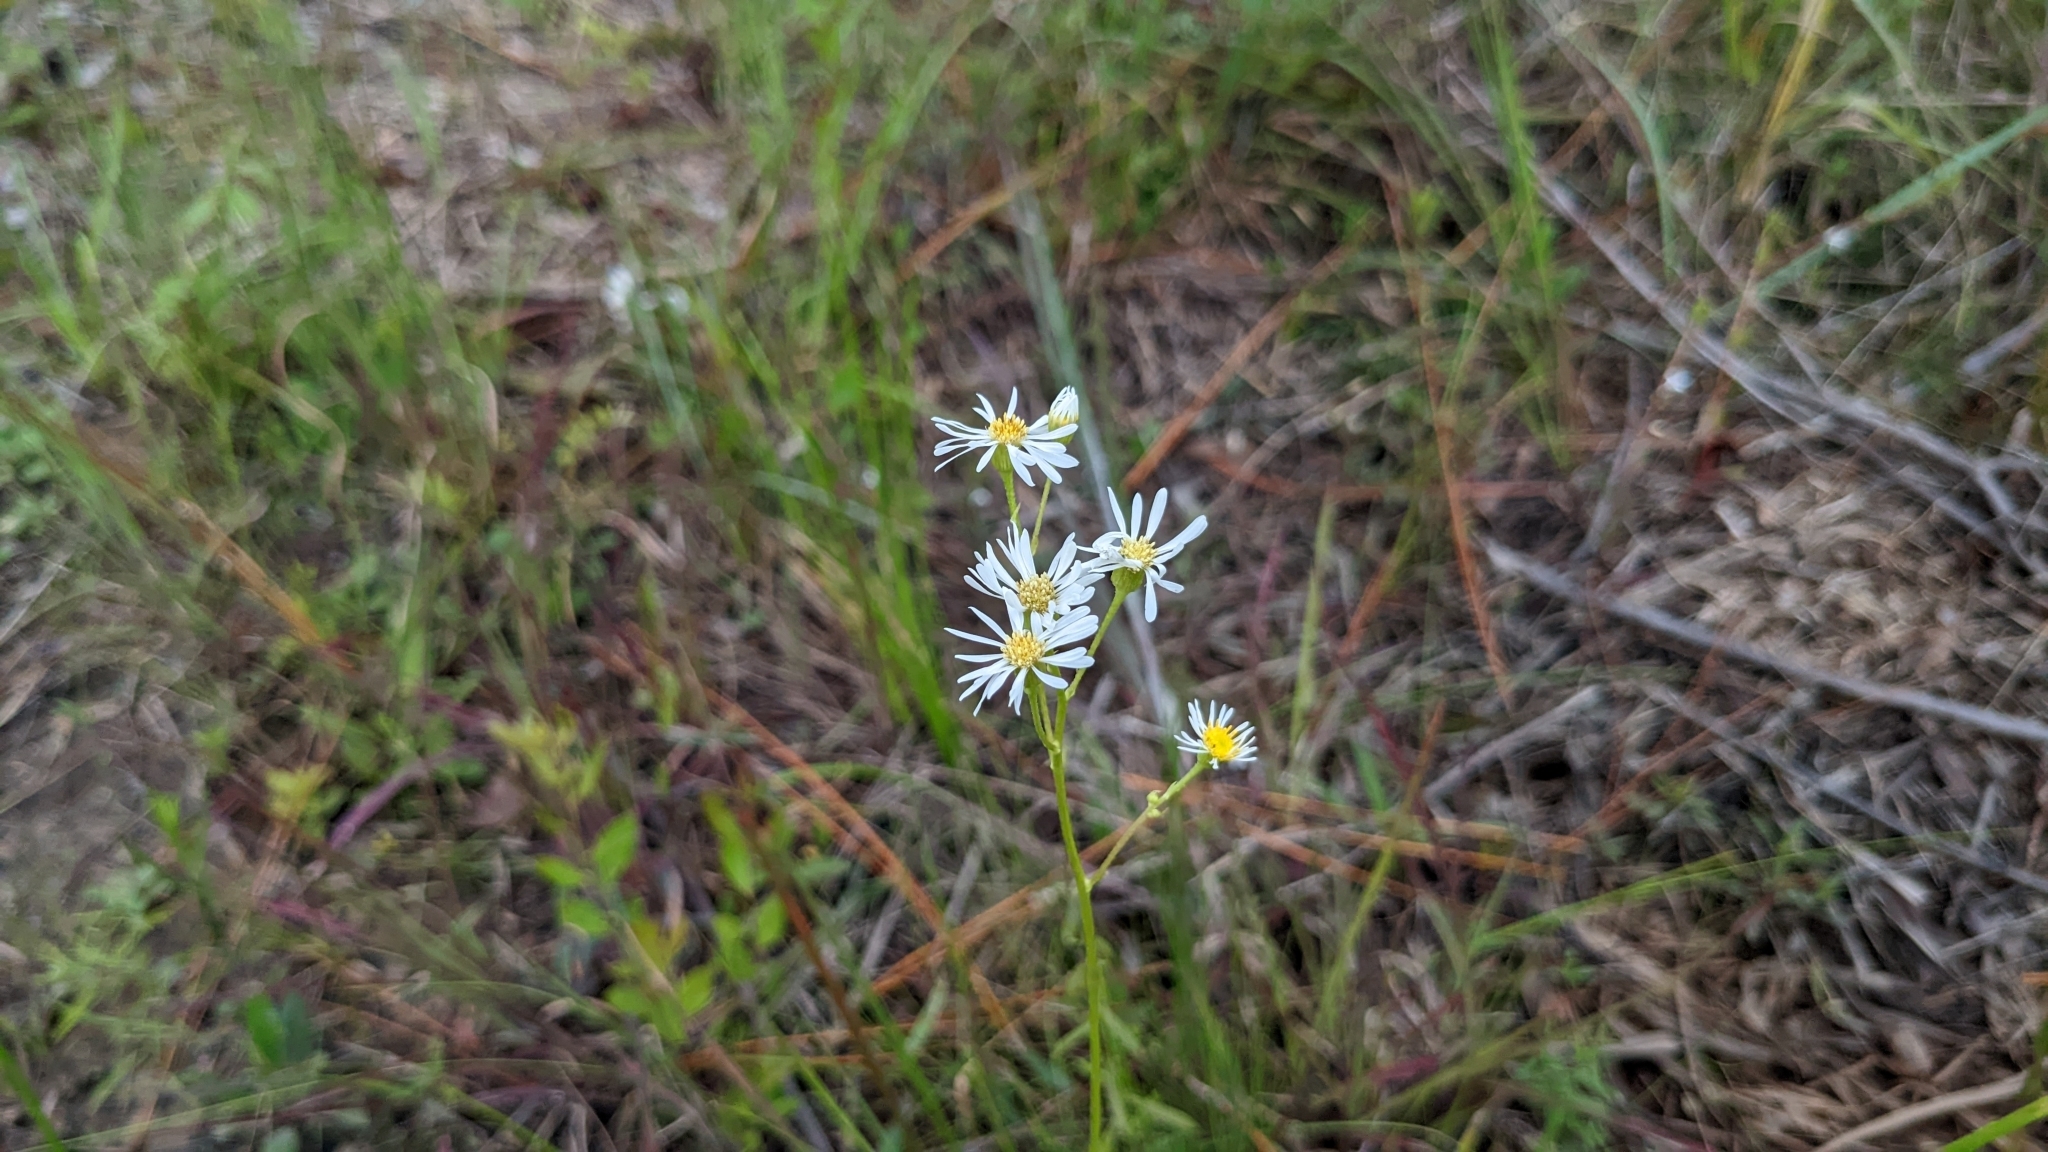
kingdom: Plantae
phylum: Tracheophyta
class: Magnoliopsida
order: Asterales
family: Asteraceae
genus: Erigeron
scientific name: Erigeron vernus
